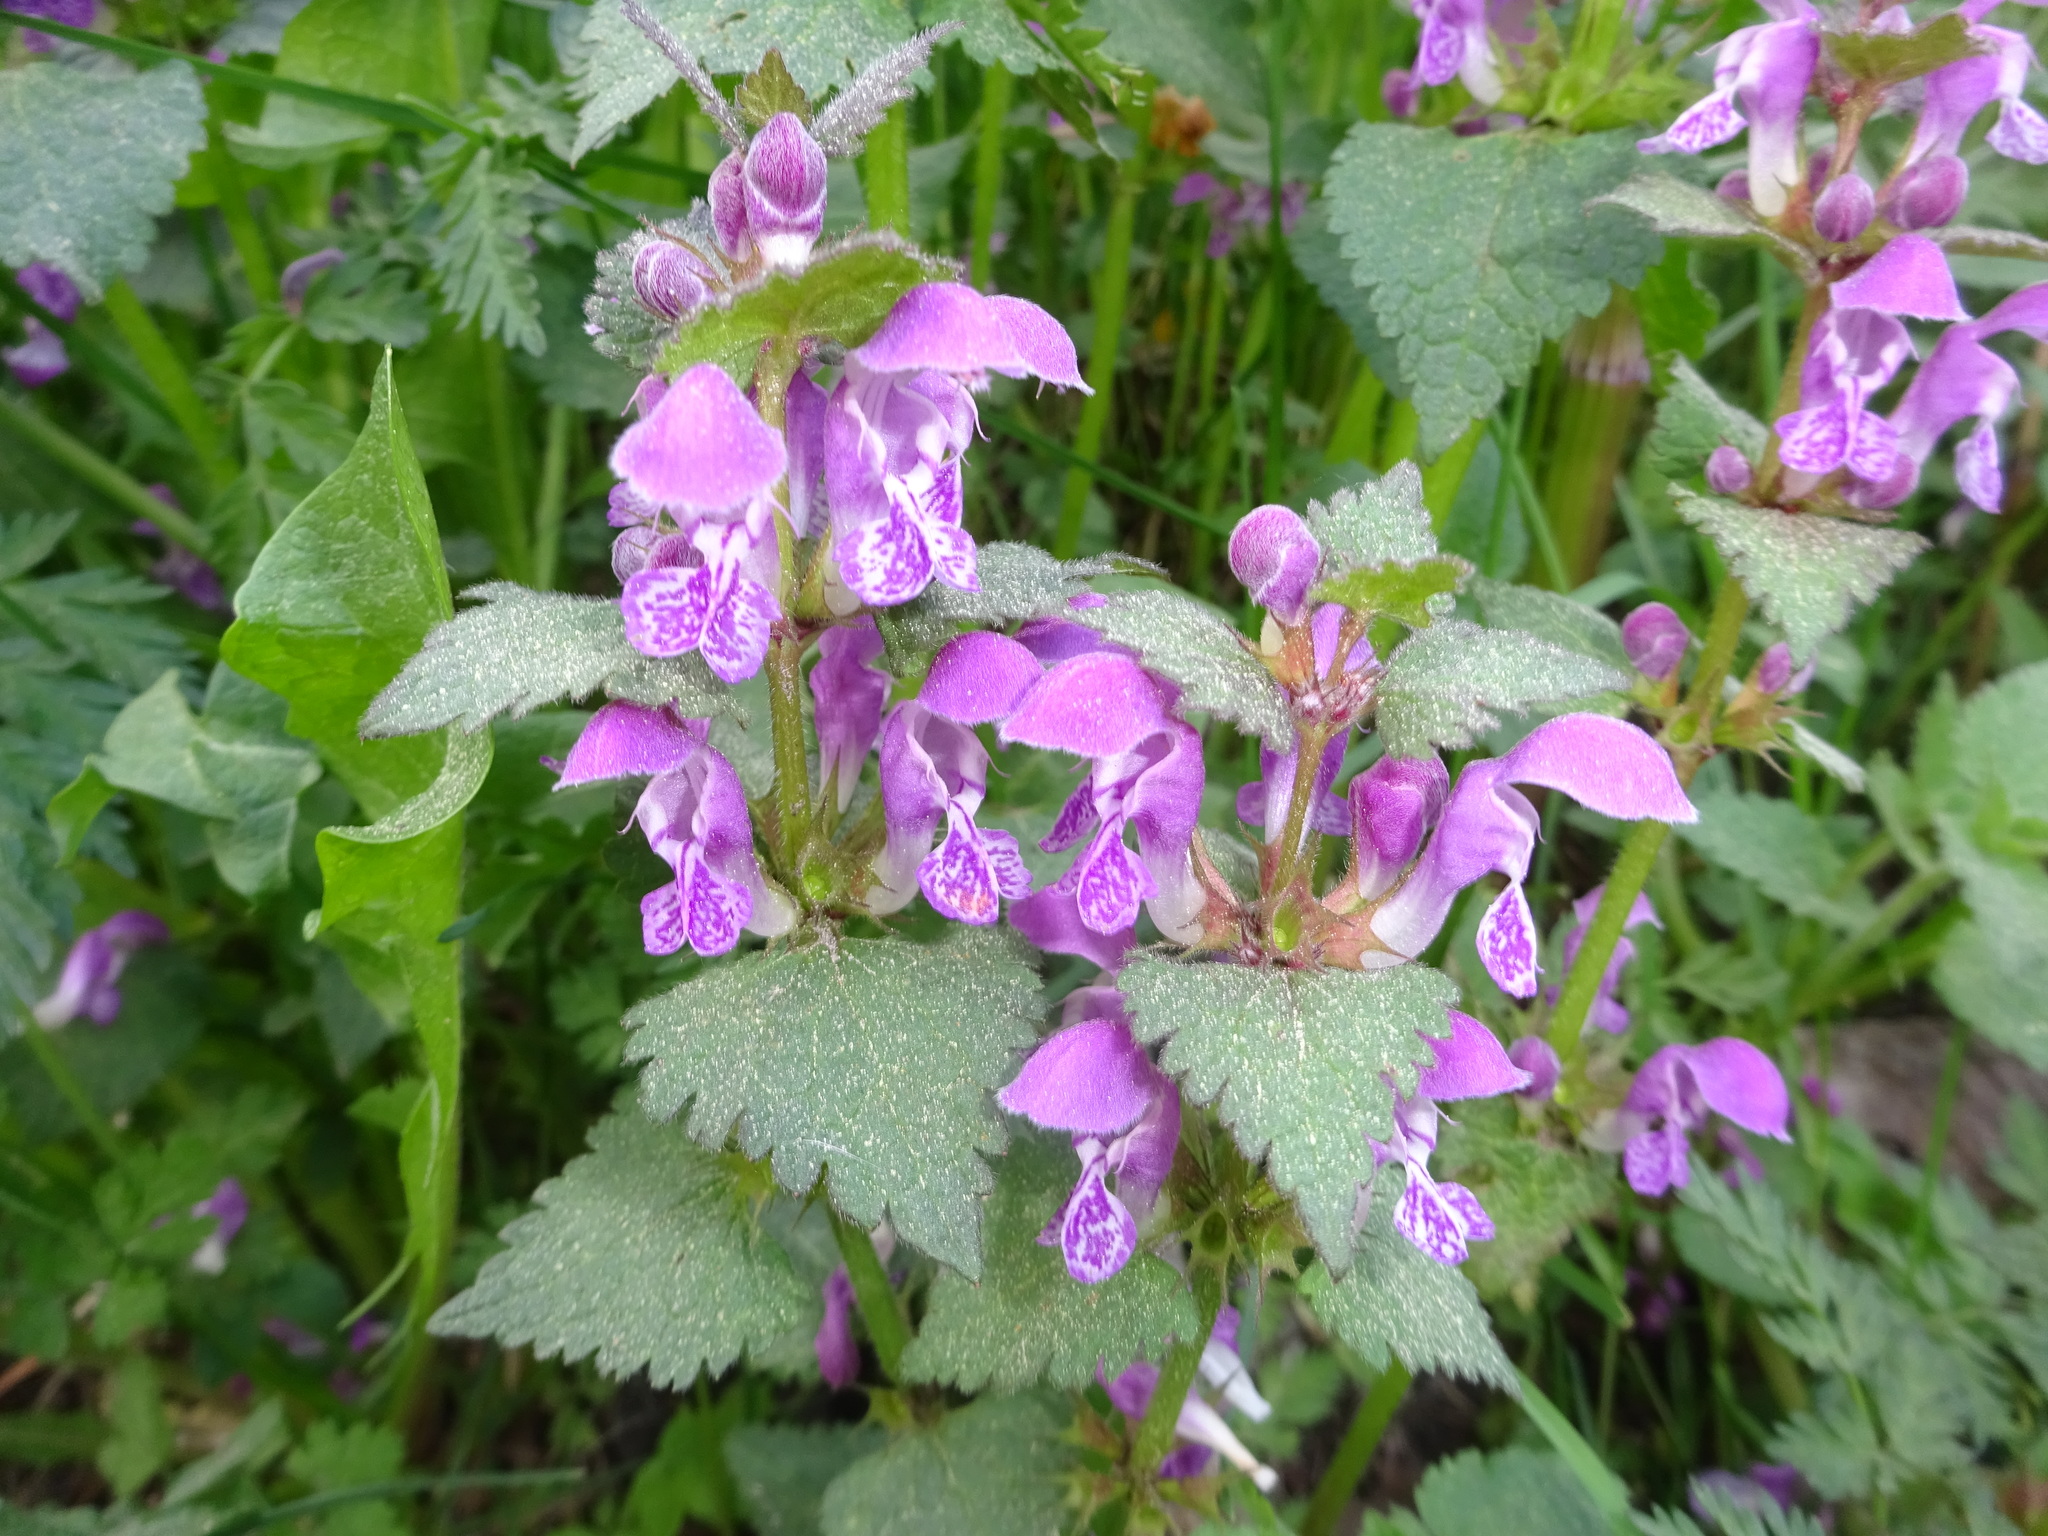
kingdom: Plantae
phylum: Tracheophyta
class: Magnoliopsida
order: Lamiales
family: Lamiaceae
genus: Lamium
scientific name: Lamium maculatum
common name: Spotted dead-nettle
